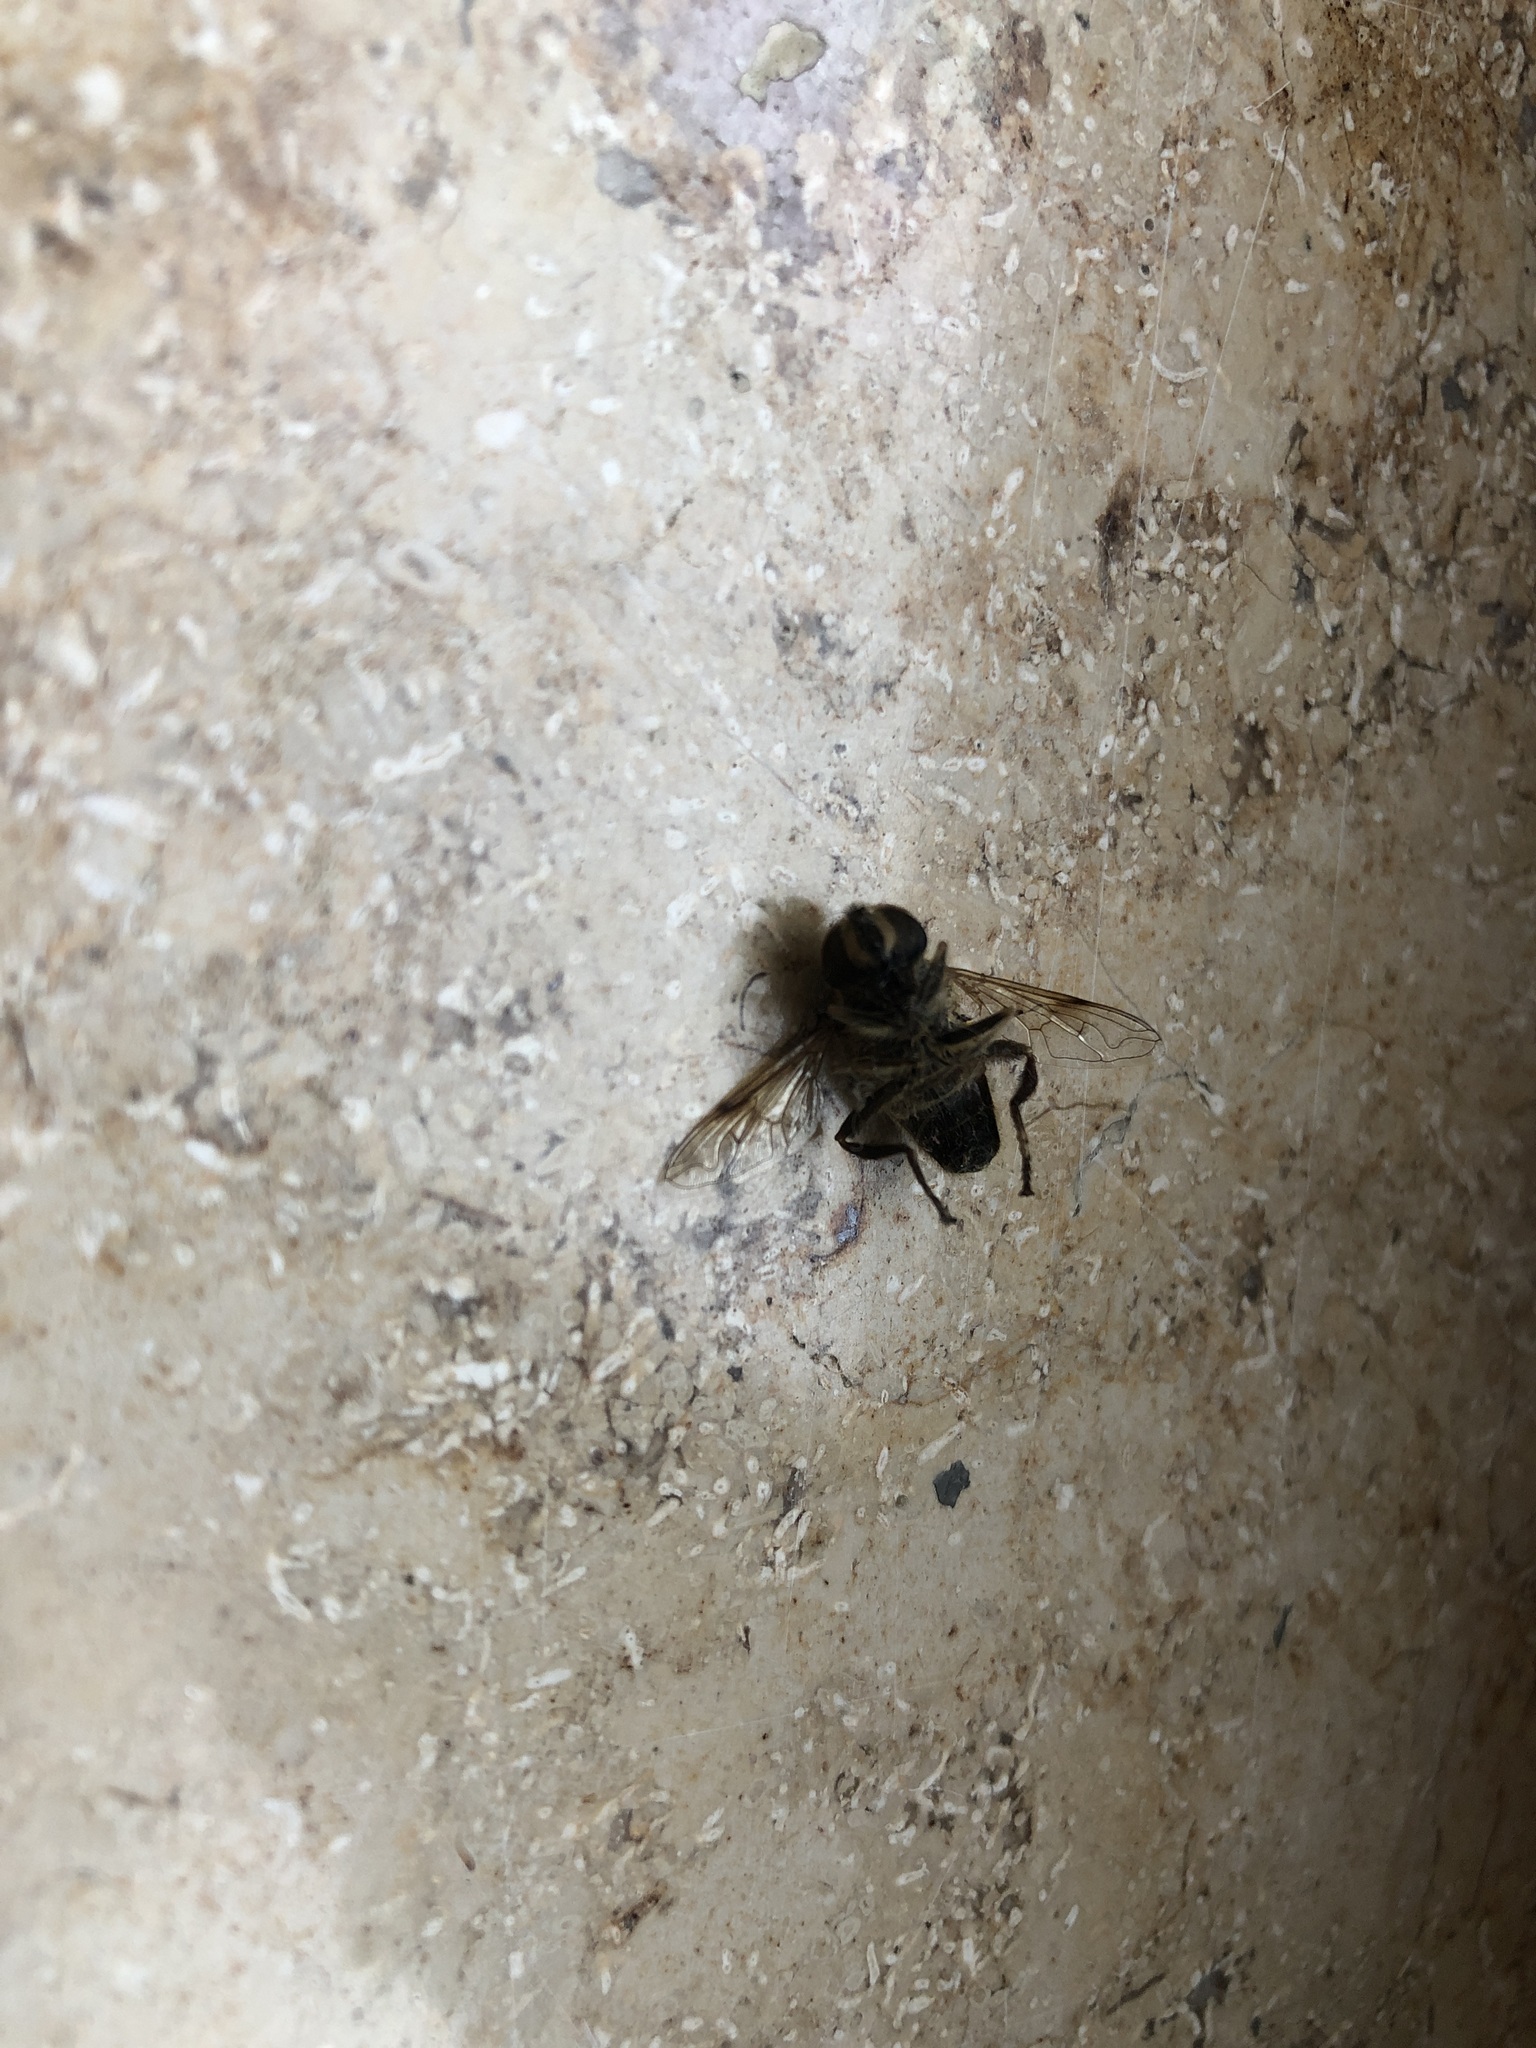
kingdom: Animalia
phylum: Arthropoda
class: Insecta
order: Diptera
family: Syrphidae
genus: Eristalis
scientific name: Eristalis tenax
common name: Drone fly
